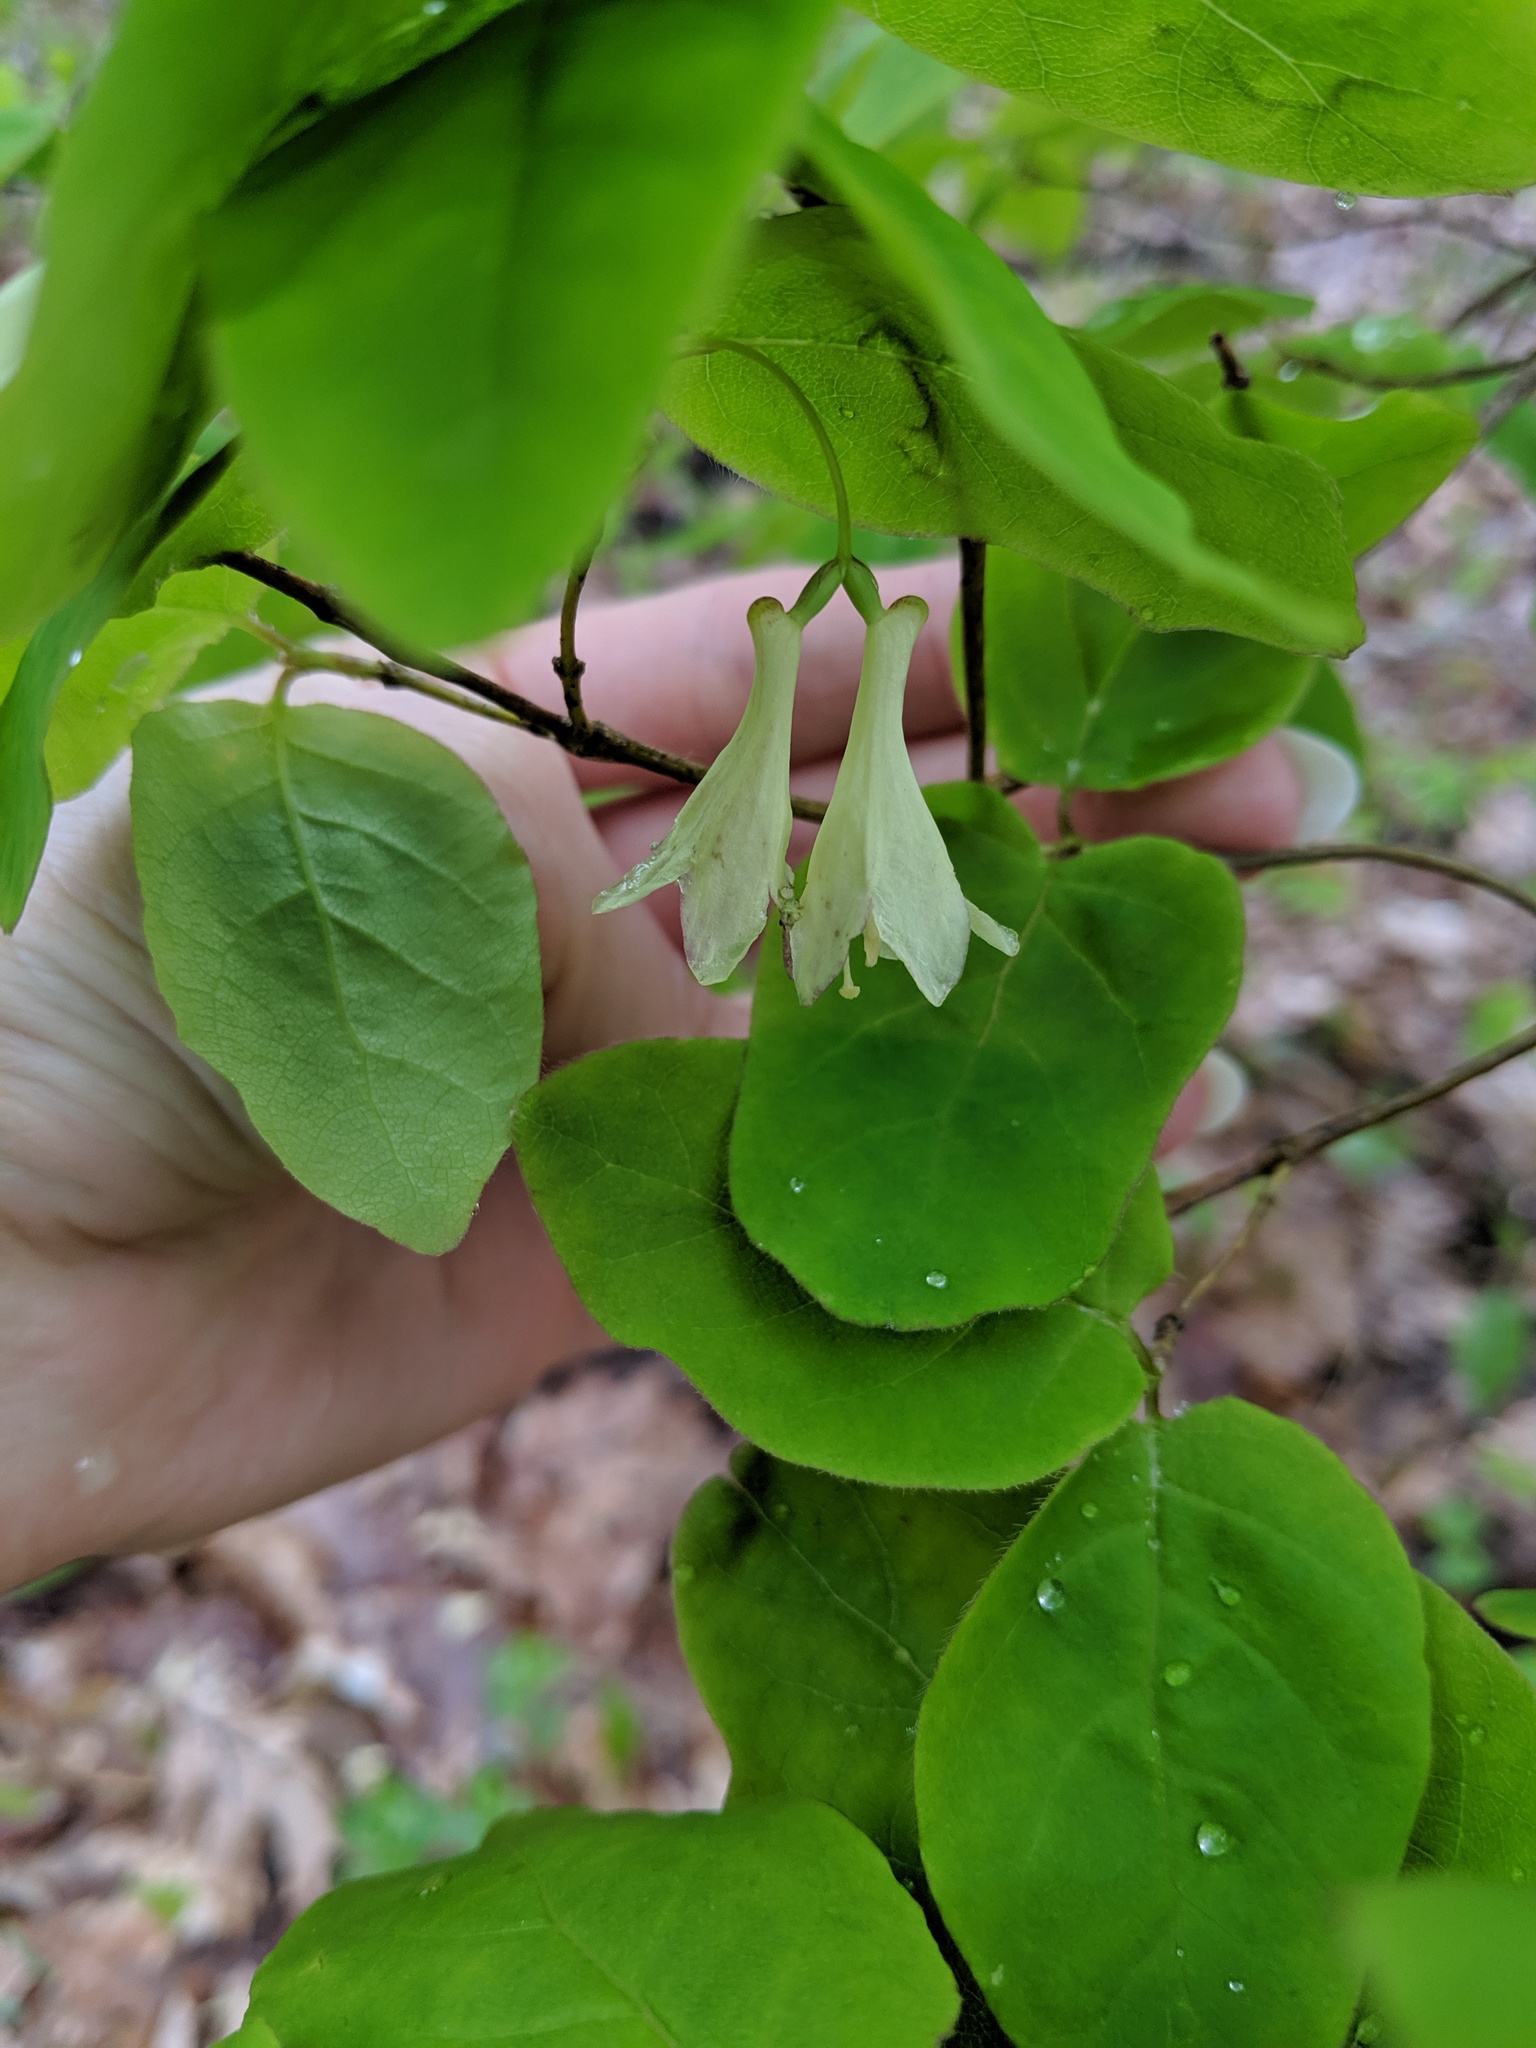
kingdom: Plantae
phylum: Tracheophyta
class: Magnoliopsida
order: Dipsacales
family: Caprifoliaceae
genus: Lonicera
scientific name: Lonicera canadensis
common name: American fly-honeysuckle
